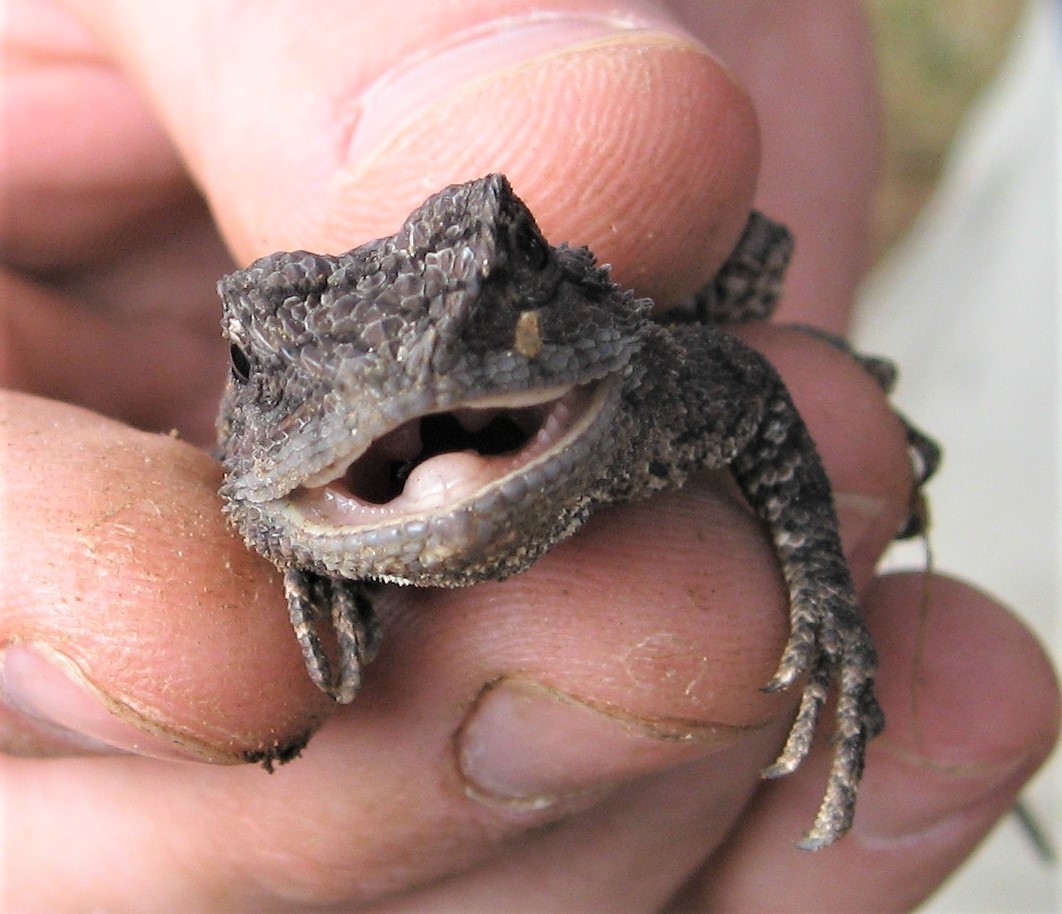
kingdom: Animalia
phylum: Chordata
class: Squamata
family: Agamidae
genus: Acanthocercus
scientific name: Acanthocercus atricollis
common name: Southern tree agama
